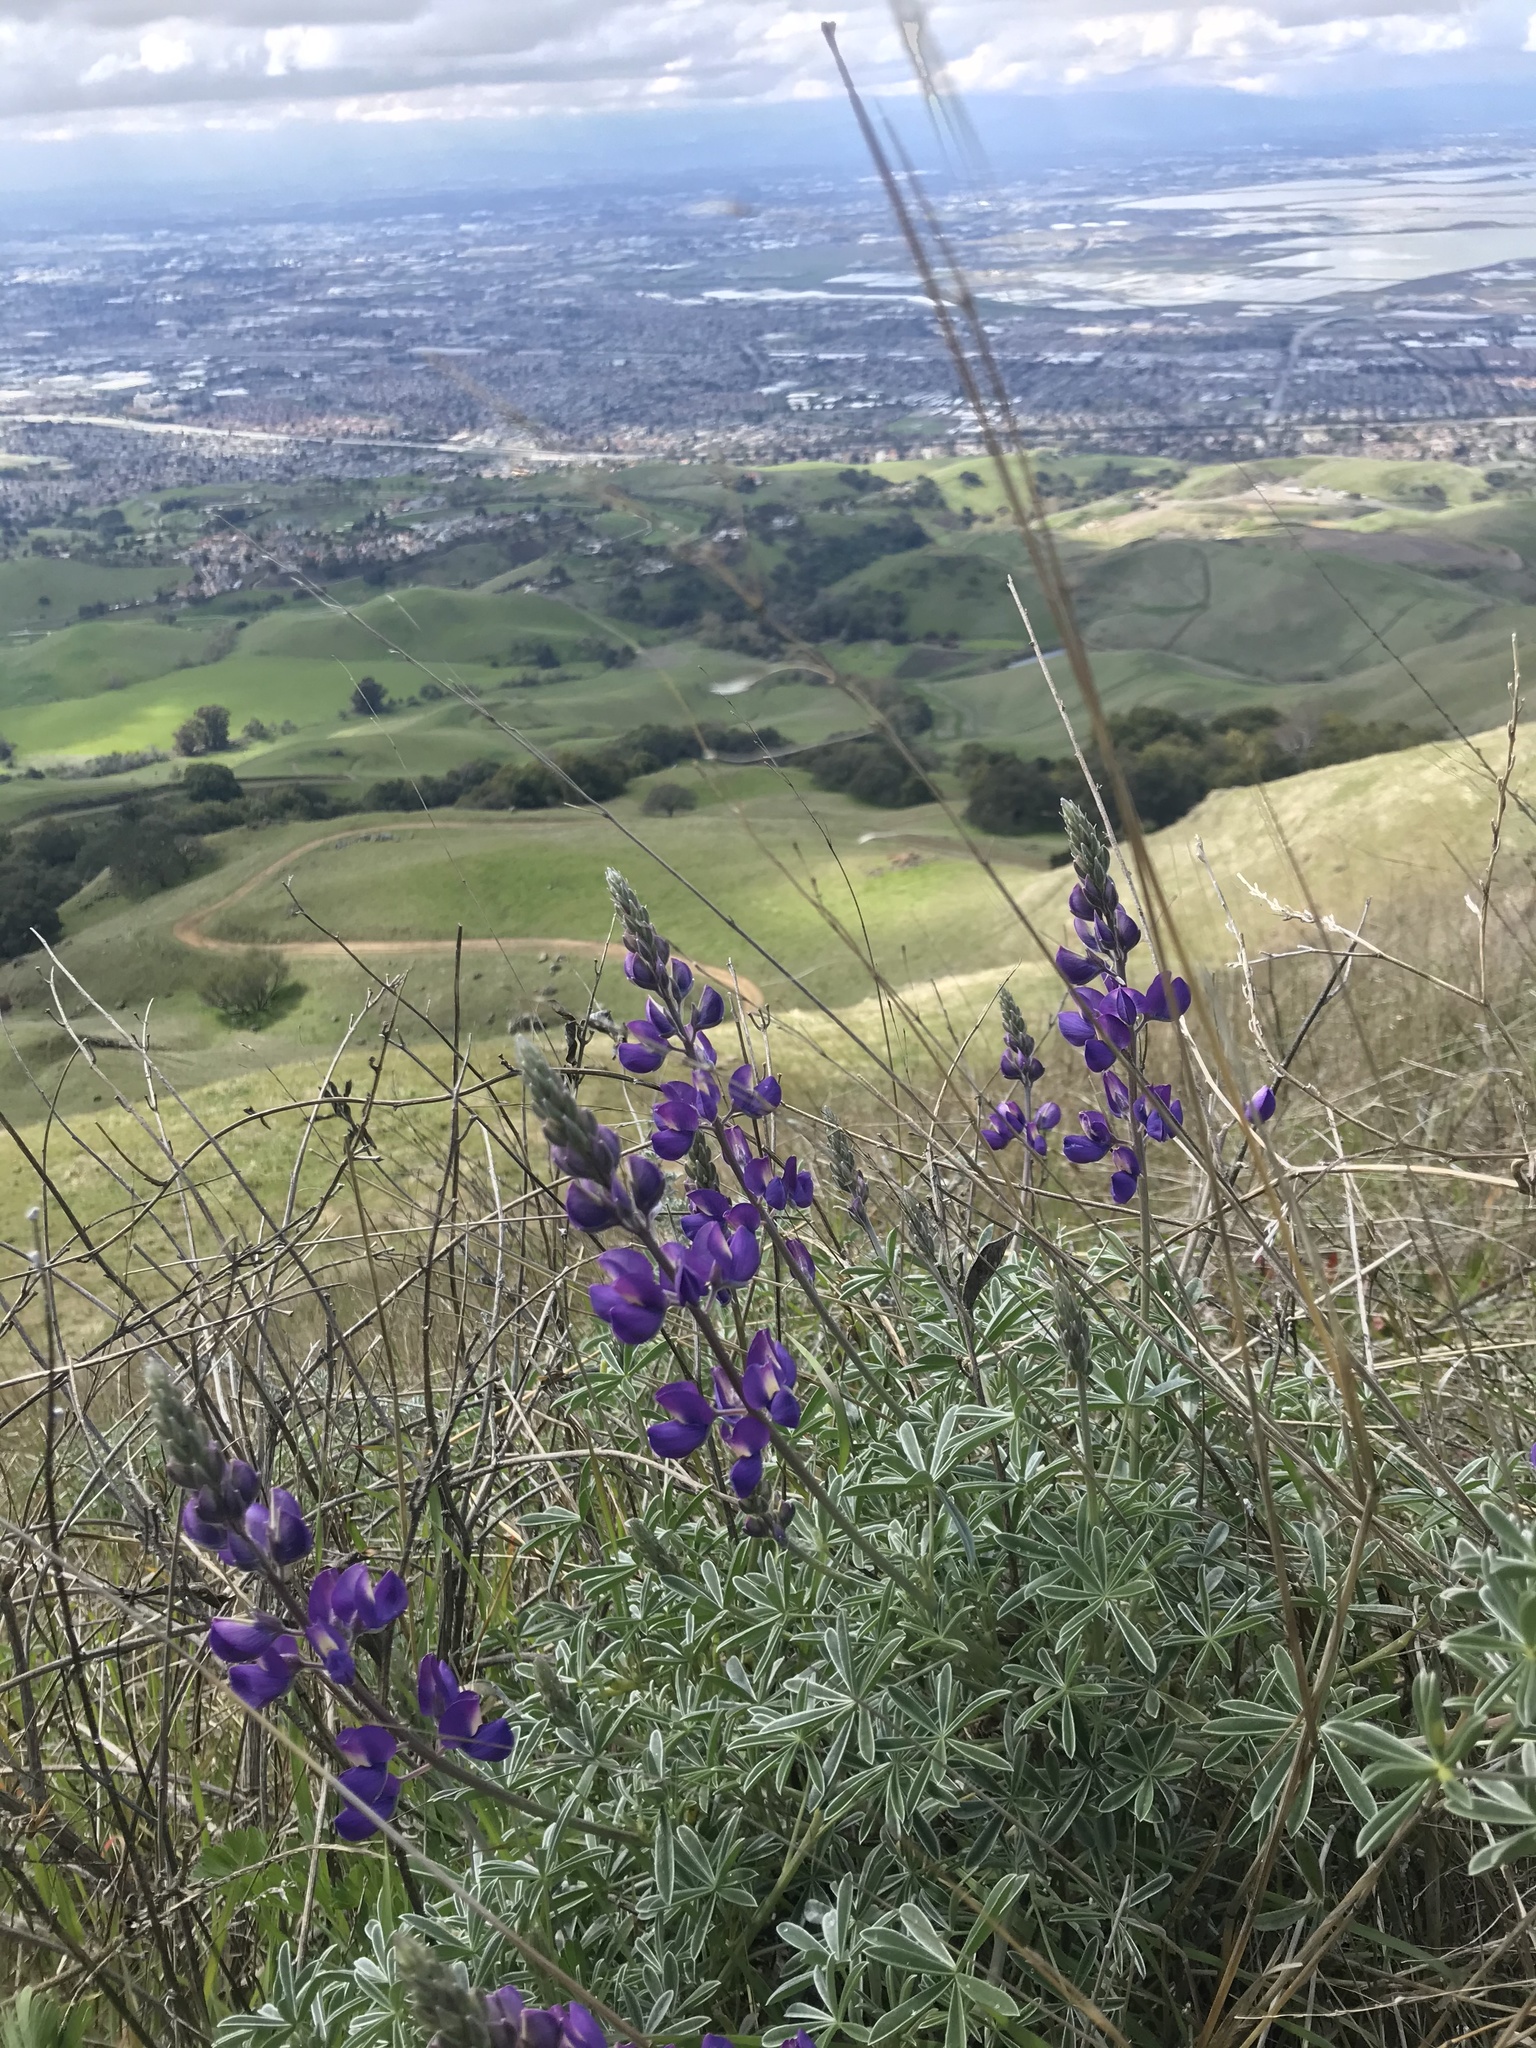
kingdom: Plantae
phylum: Tracheophyta
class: Magnoliopsida
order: Fabales
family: Fabaceae
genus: Lupinus
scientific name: Lupinus albifrons
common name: Foothill lupine
